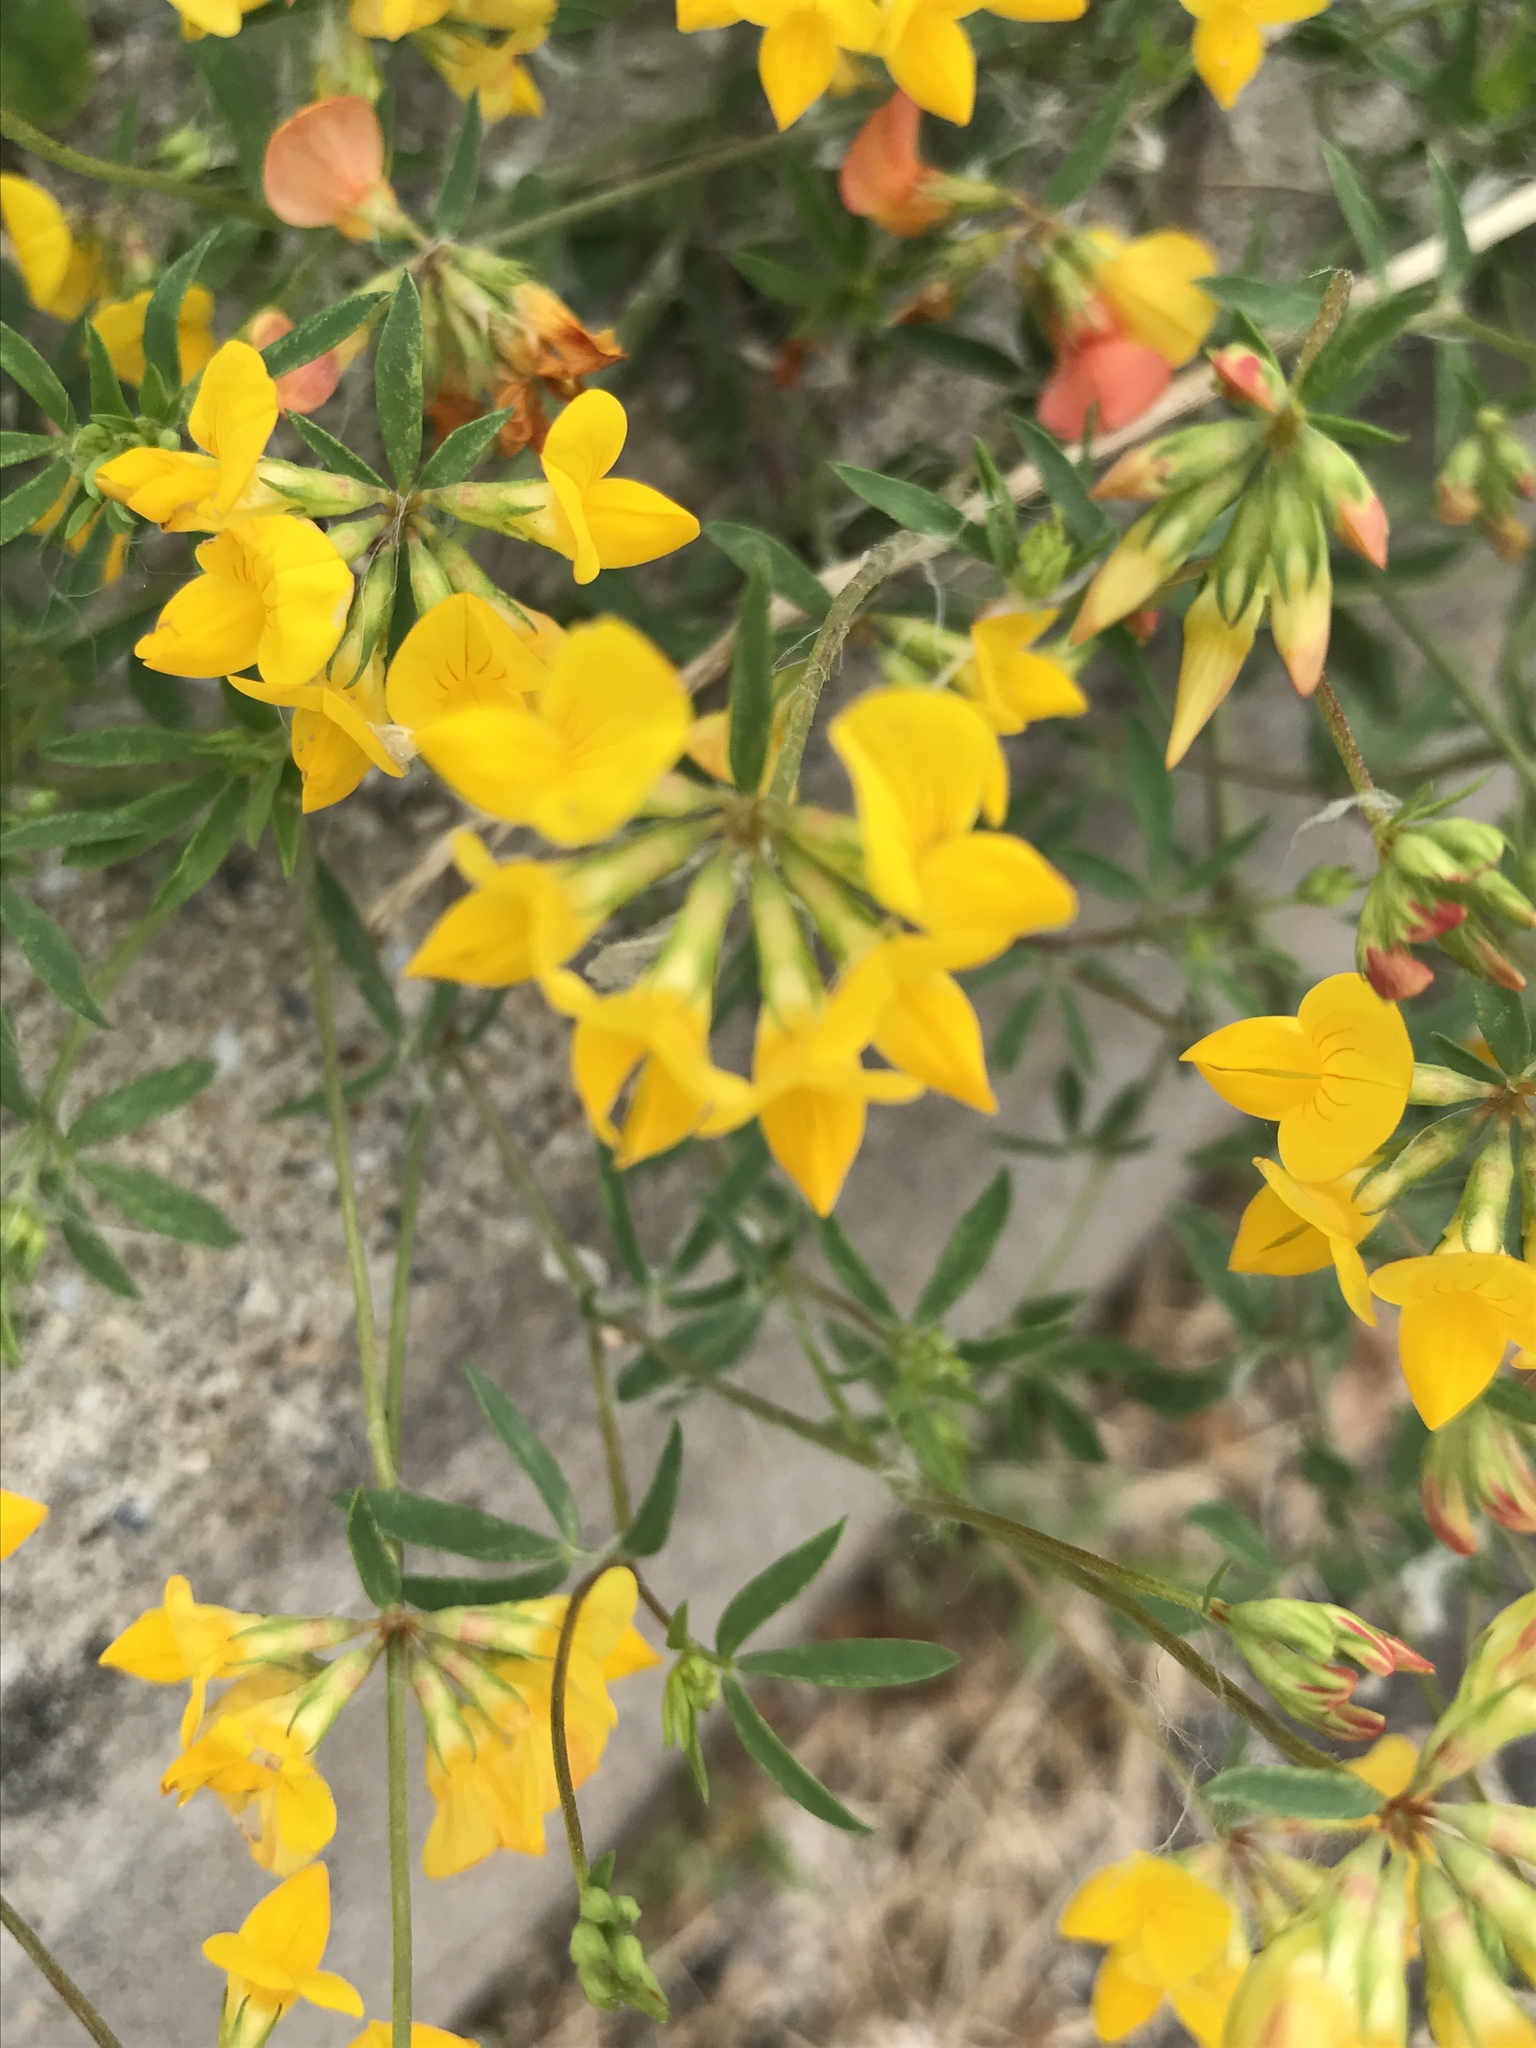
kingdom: Plantae
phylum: Tracheophyta
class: Magnoliopsida
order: Fabales
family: Fabaceae
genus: Lotus
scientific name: Lotus corniculatus
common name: Common bird's-foot-trefoil
